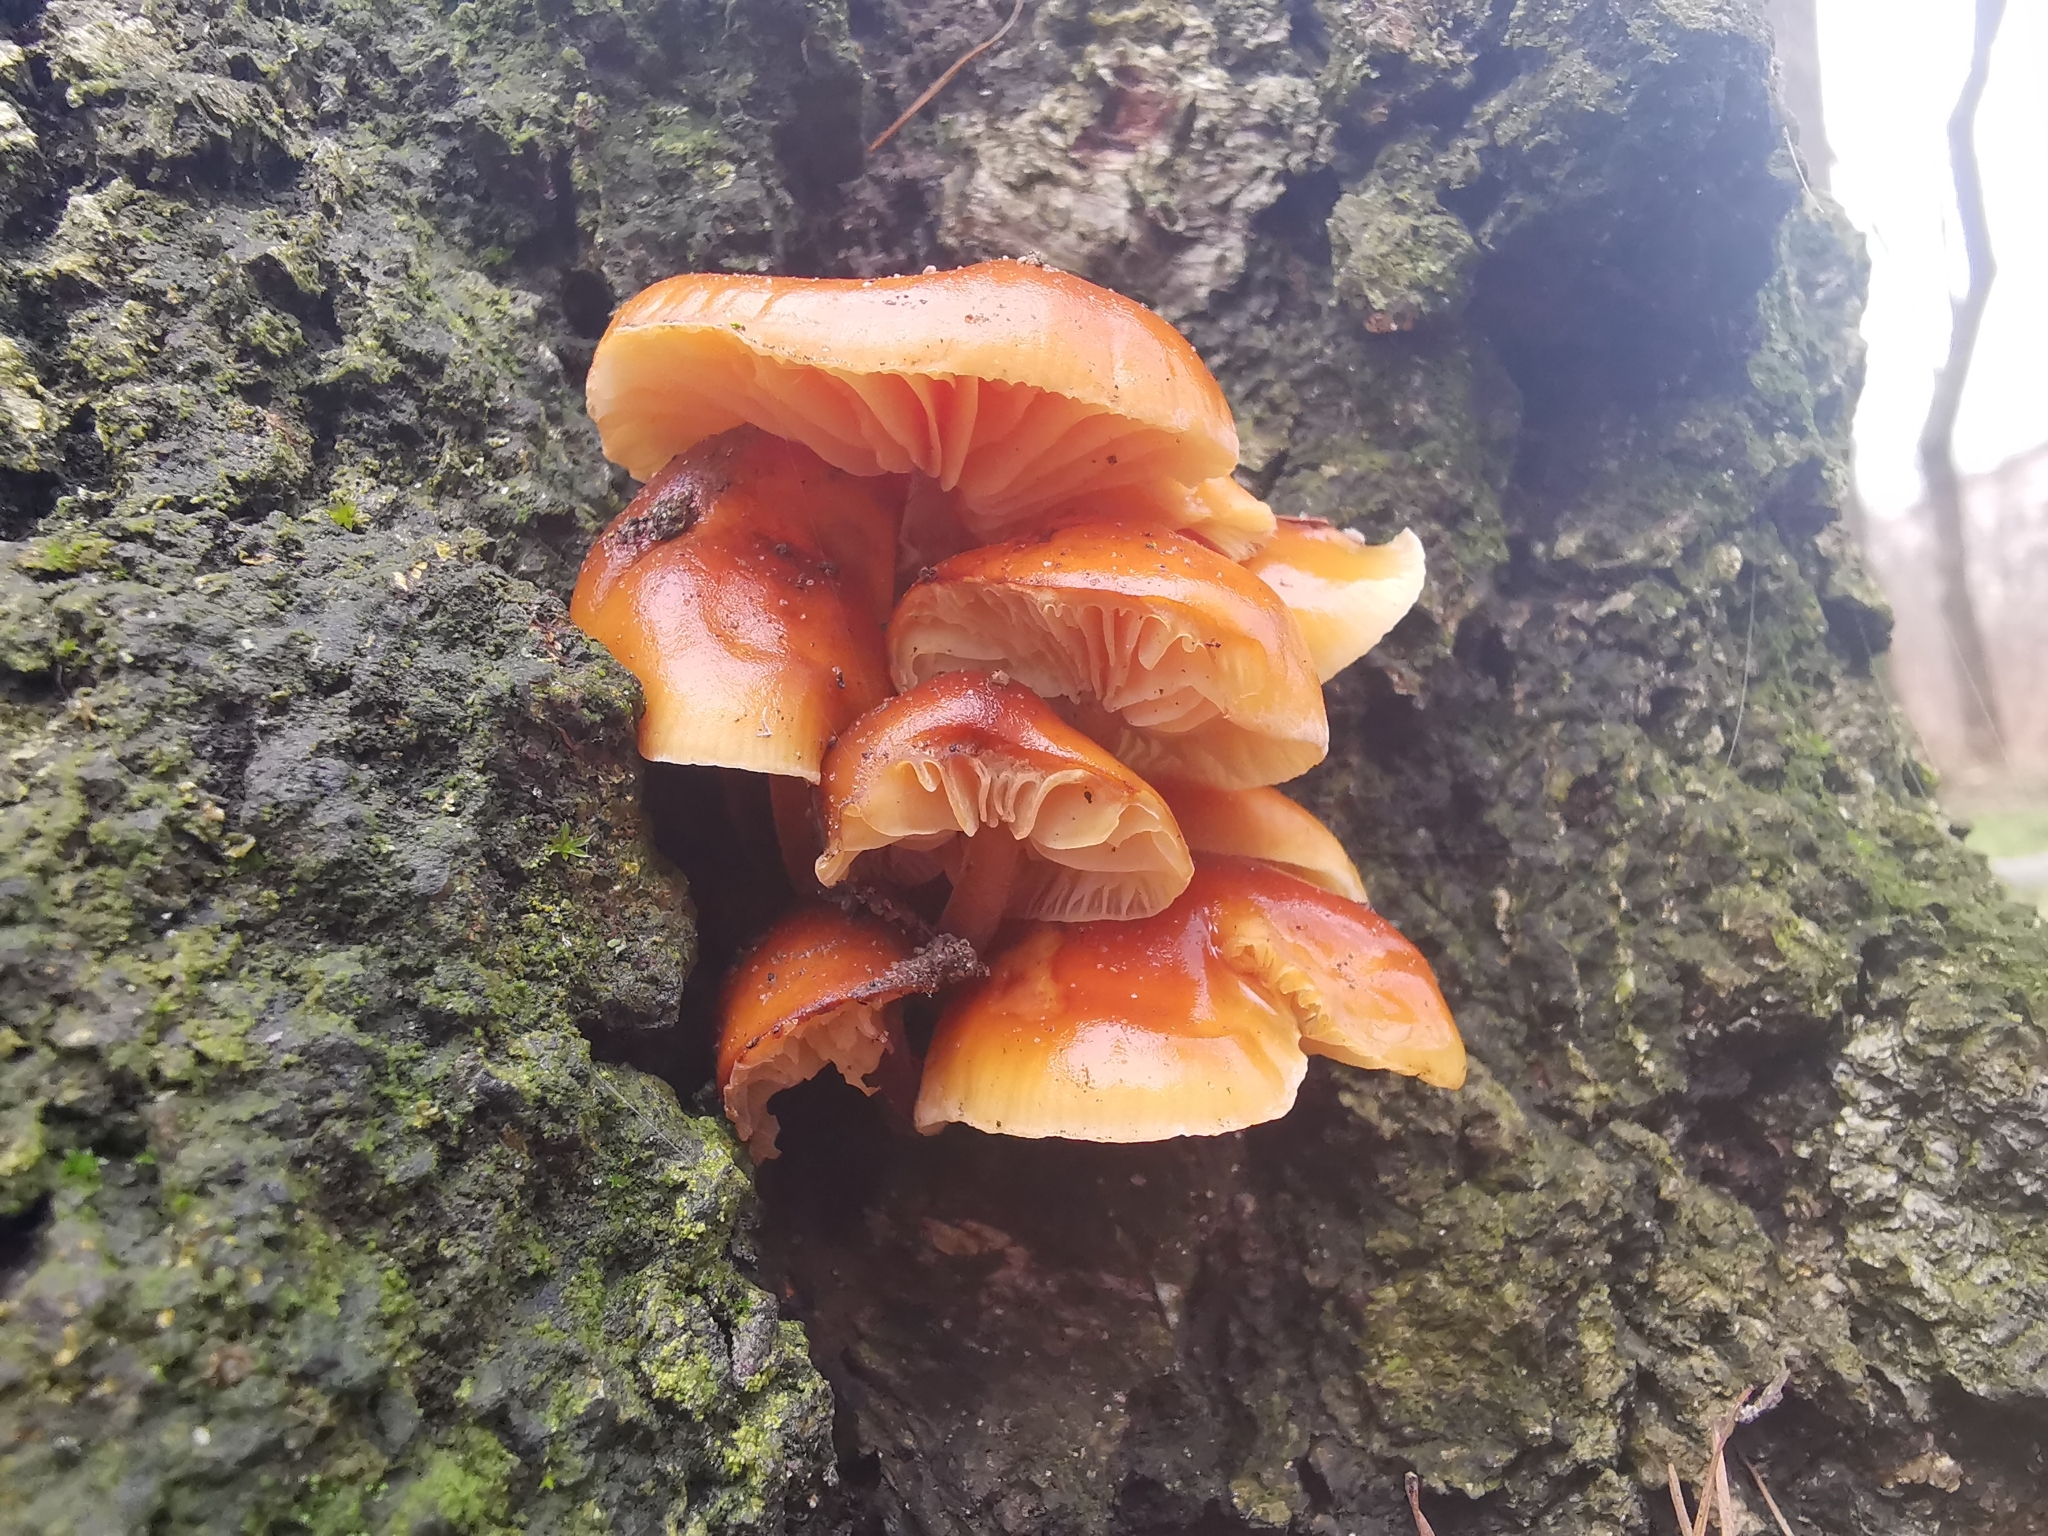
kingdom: Fungi
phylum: Basidiomycota
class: Agaricomycetes
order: Agaricales
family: Physalacriaceae
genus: Flammulina
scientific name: Flammulina
